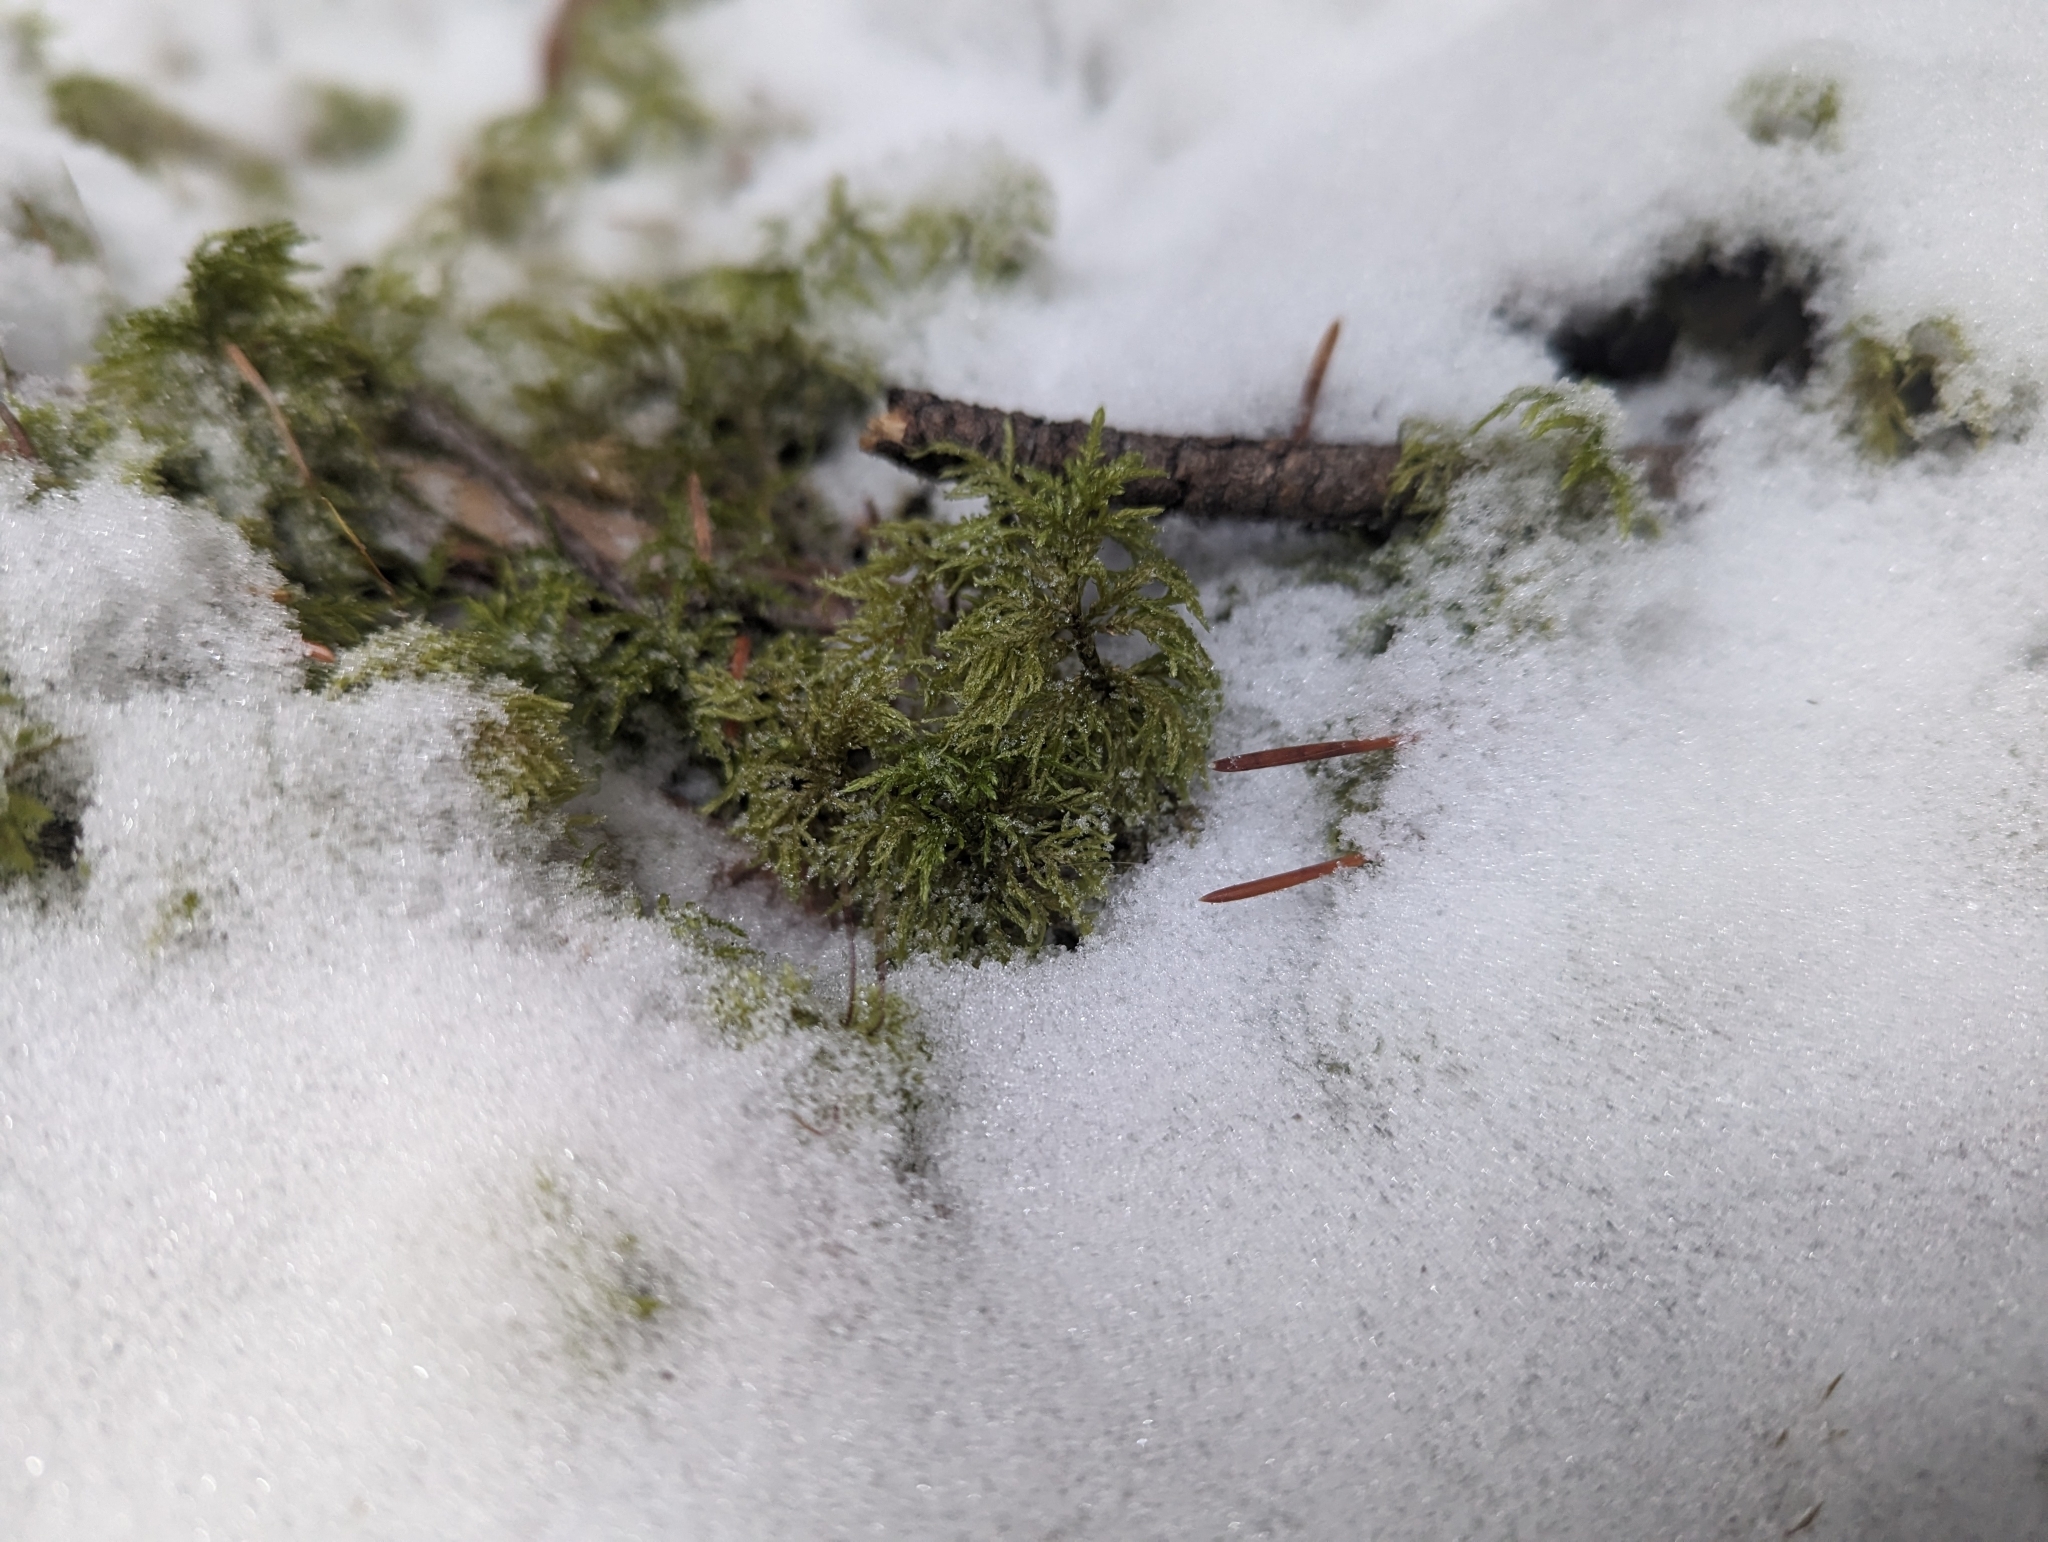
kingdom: Plantae
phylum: Bryophyta
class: Bryopsida
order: Hypnales
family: Hylocomiaceae
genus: Hylocomium
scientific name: Hylocomium splendens
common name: Stairstep moss
